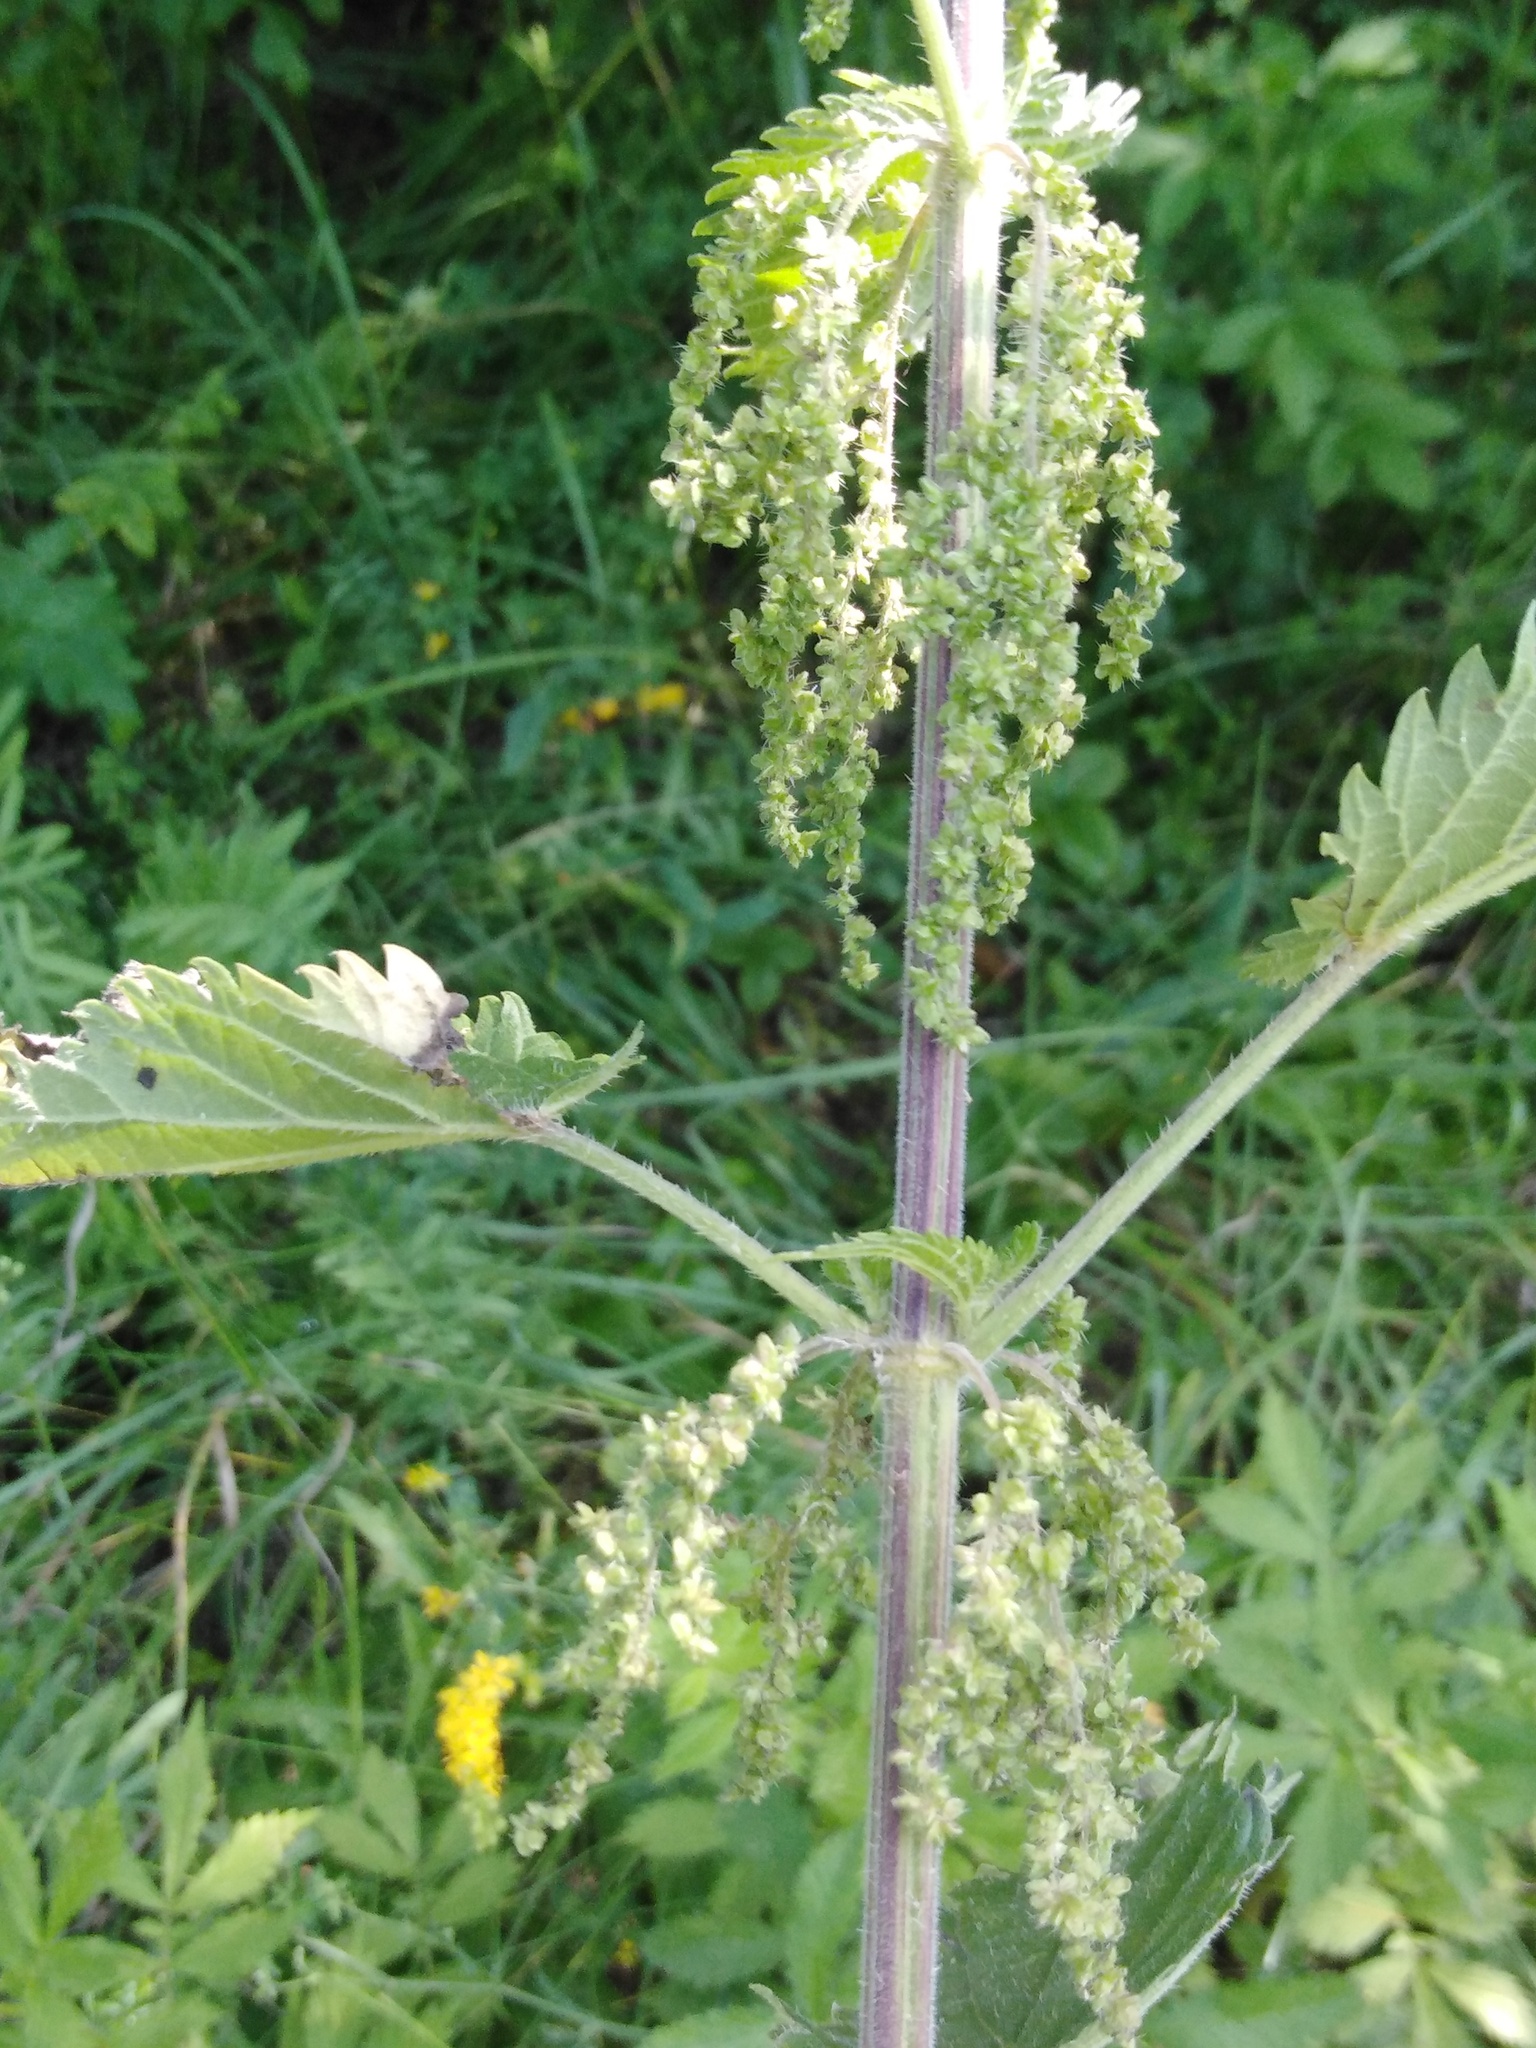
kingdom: Plantae
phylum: Tracheophyta
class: Magnoliopsida
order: Rosales
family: Urticaceae
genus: Urtica
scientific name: Urtica dioica
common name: Common nettle
